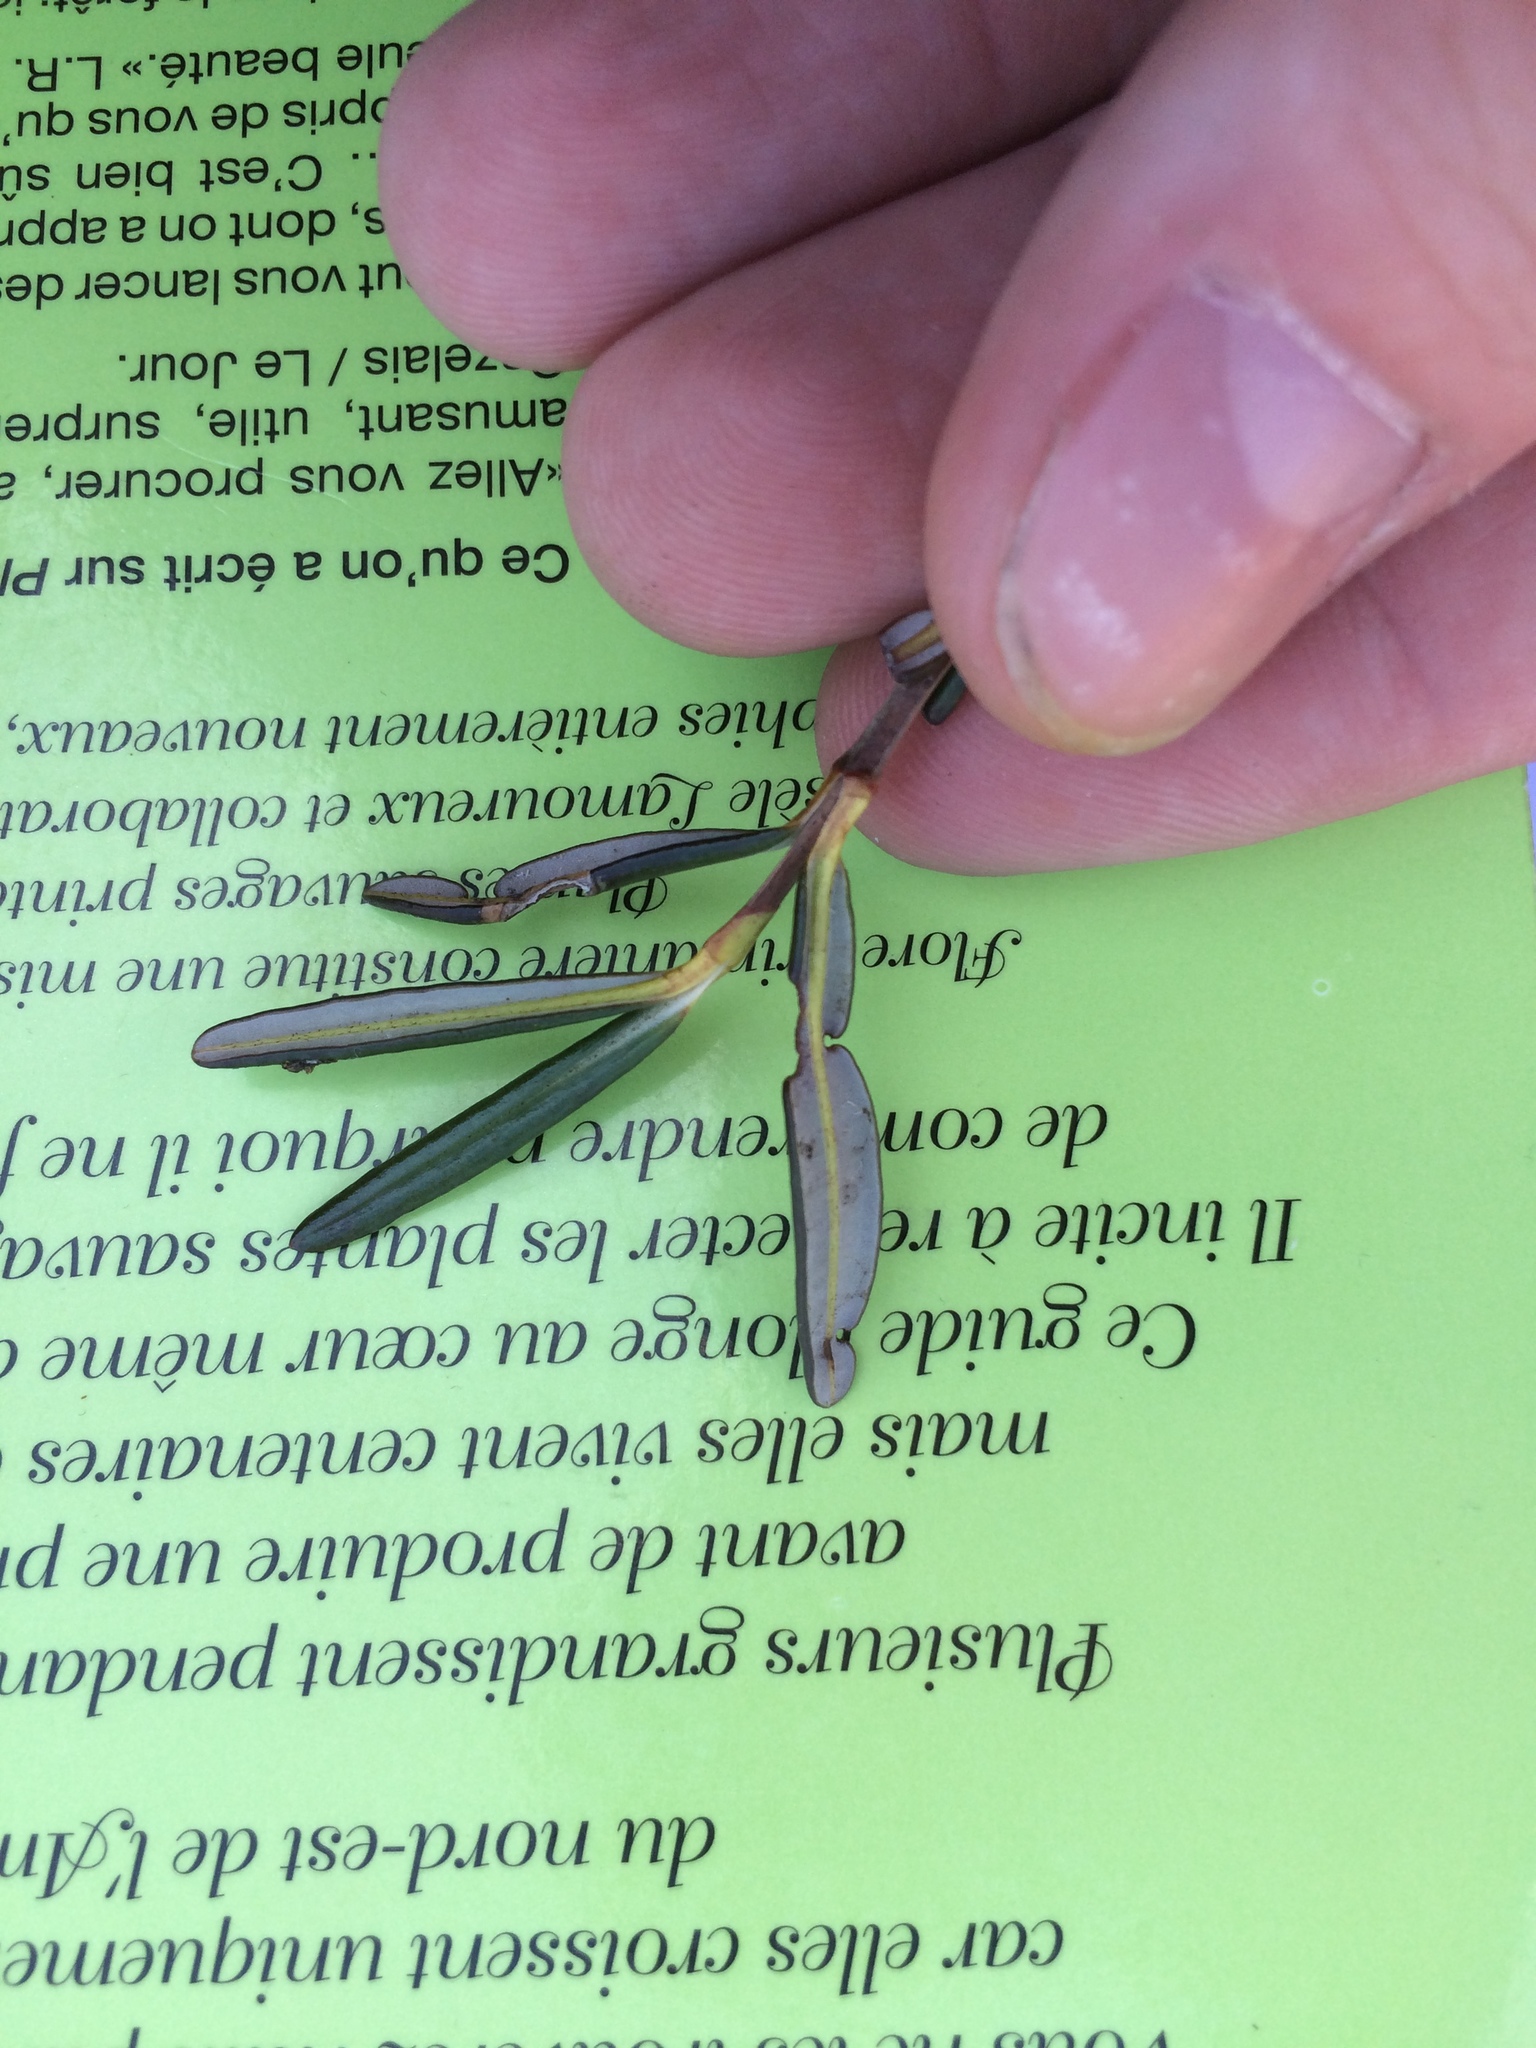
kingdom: Plantae
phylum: Tracheophyta
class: Magnoliopsida
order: Ericales
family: Ericaceae
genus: Kalmia
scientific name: Kalmia polifolia
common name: Bog-laurel
